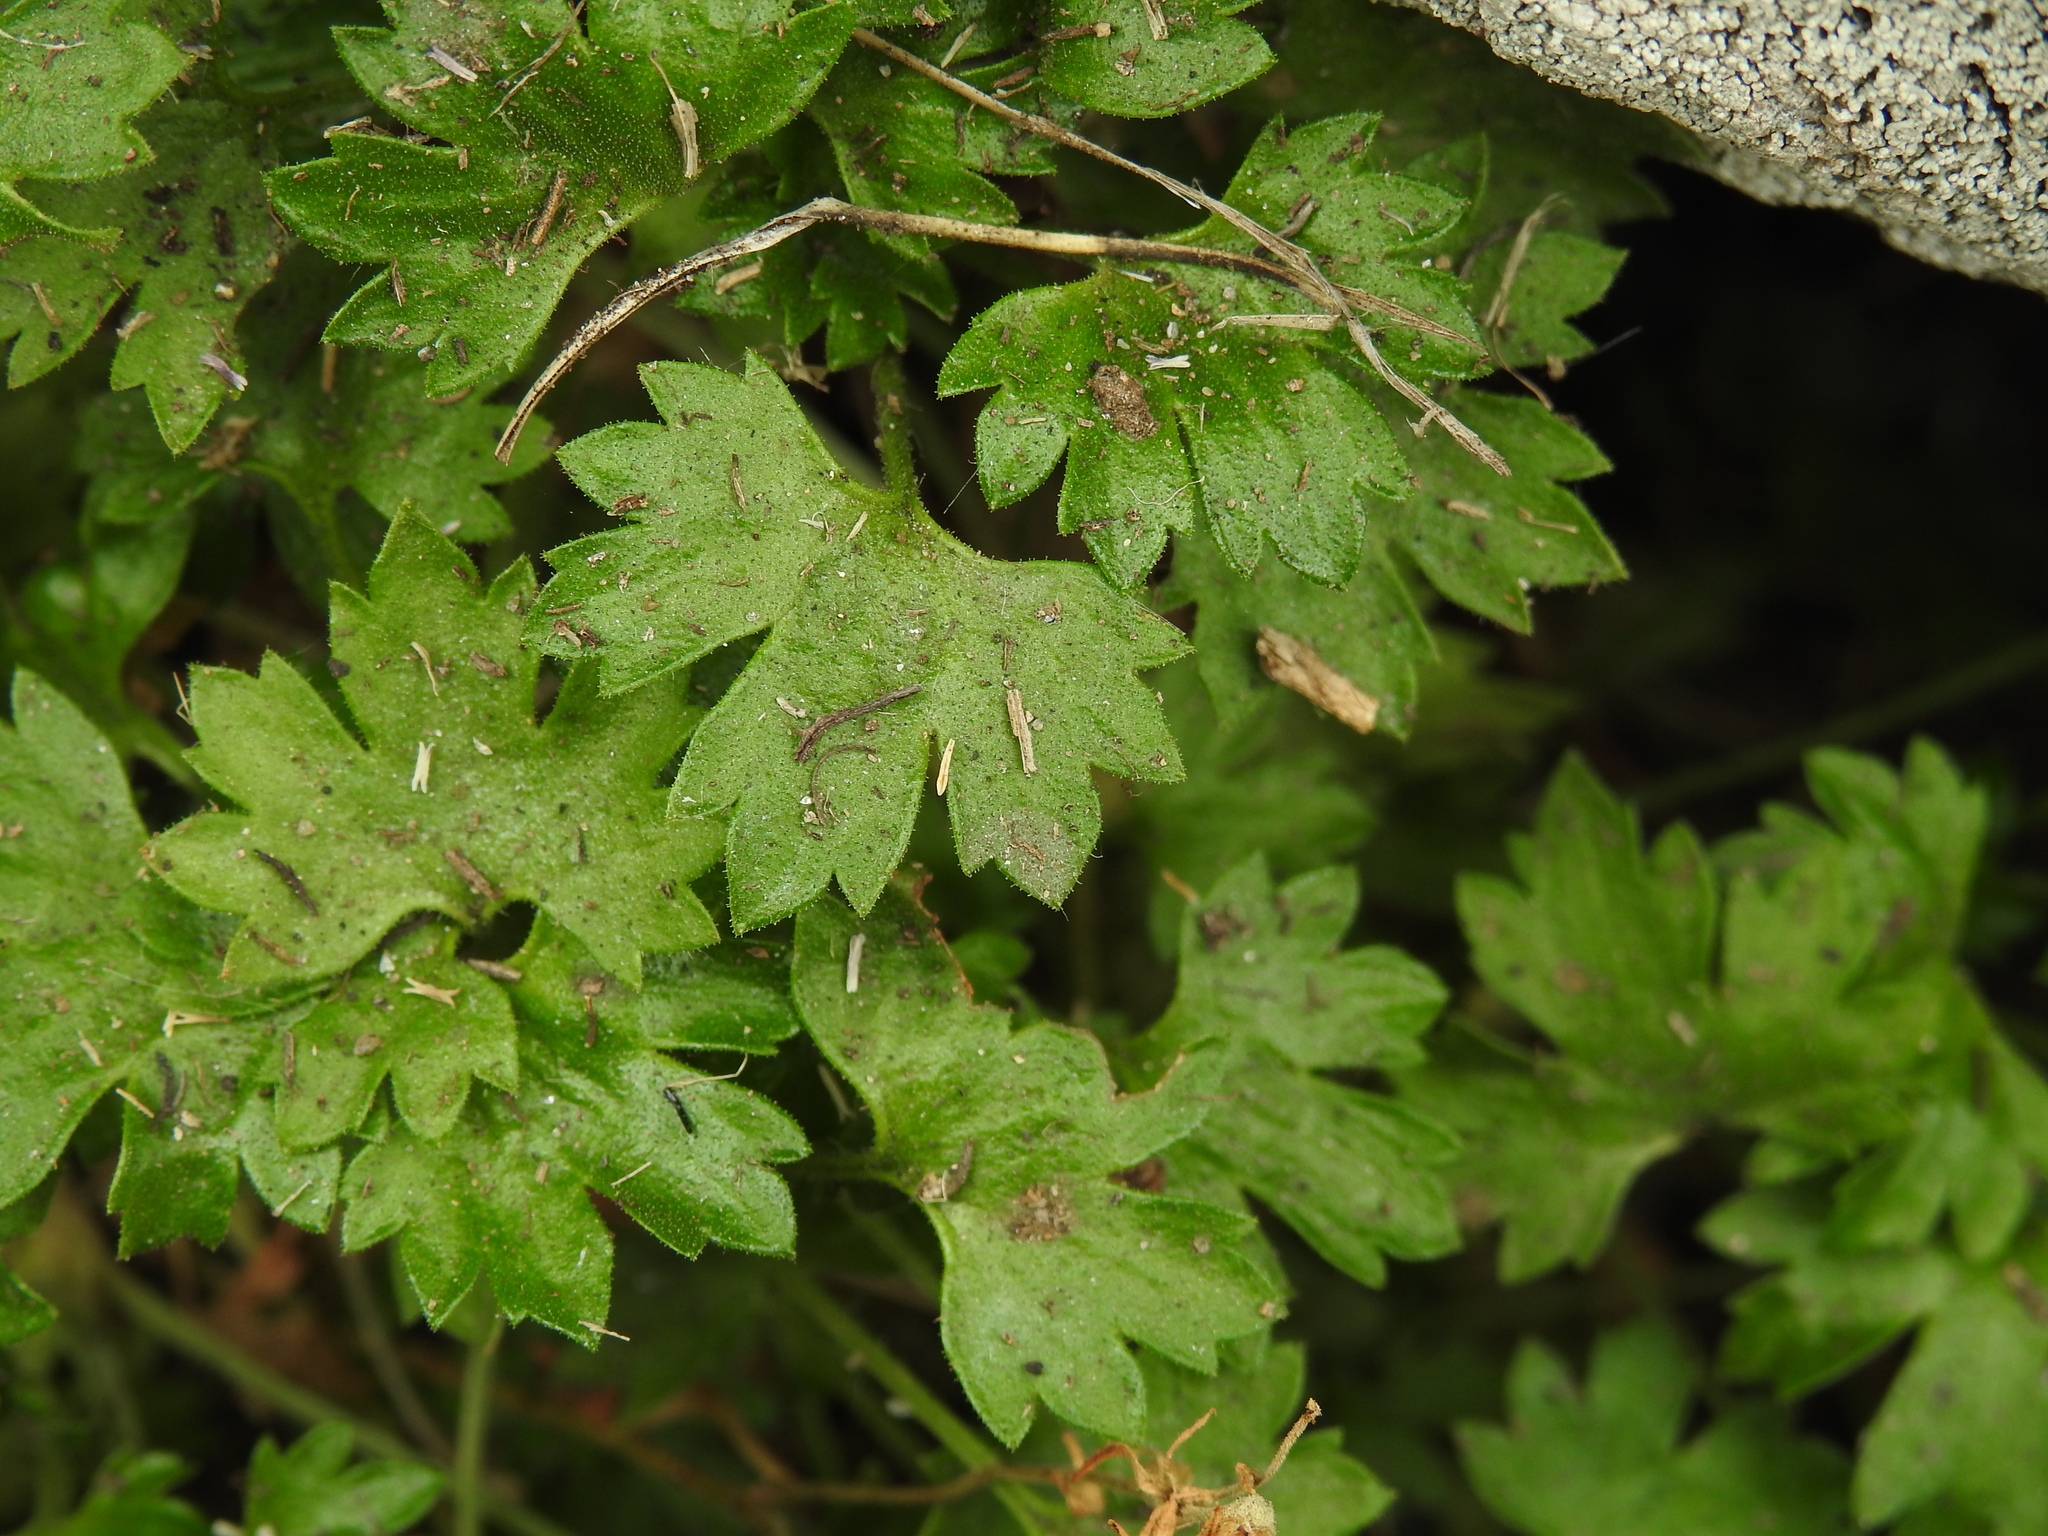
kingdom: Plantae
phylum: Tracheophyta
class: Magnoliopsida
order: Saxifragales
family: Saxifragaceae
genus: Saxifraga
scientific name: Saxifraga geranioides
